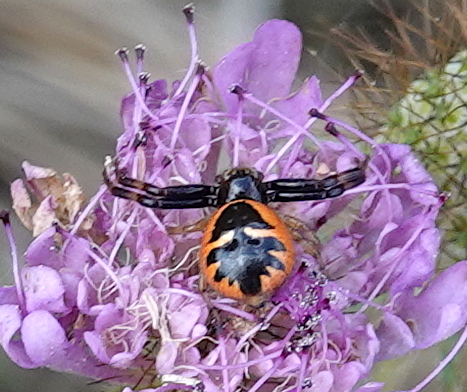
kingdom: Animalia
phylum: Arthropoda
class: Arachnida
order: Araneae
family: Thomisidae
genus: Synema
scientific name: Synema globosum
